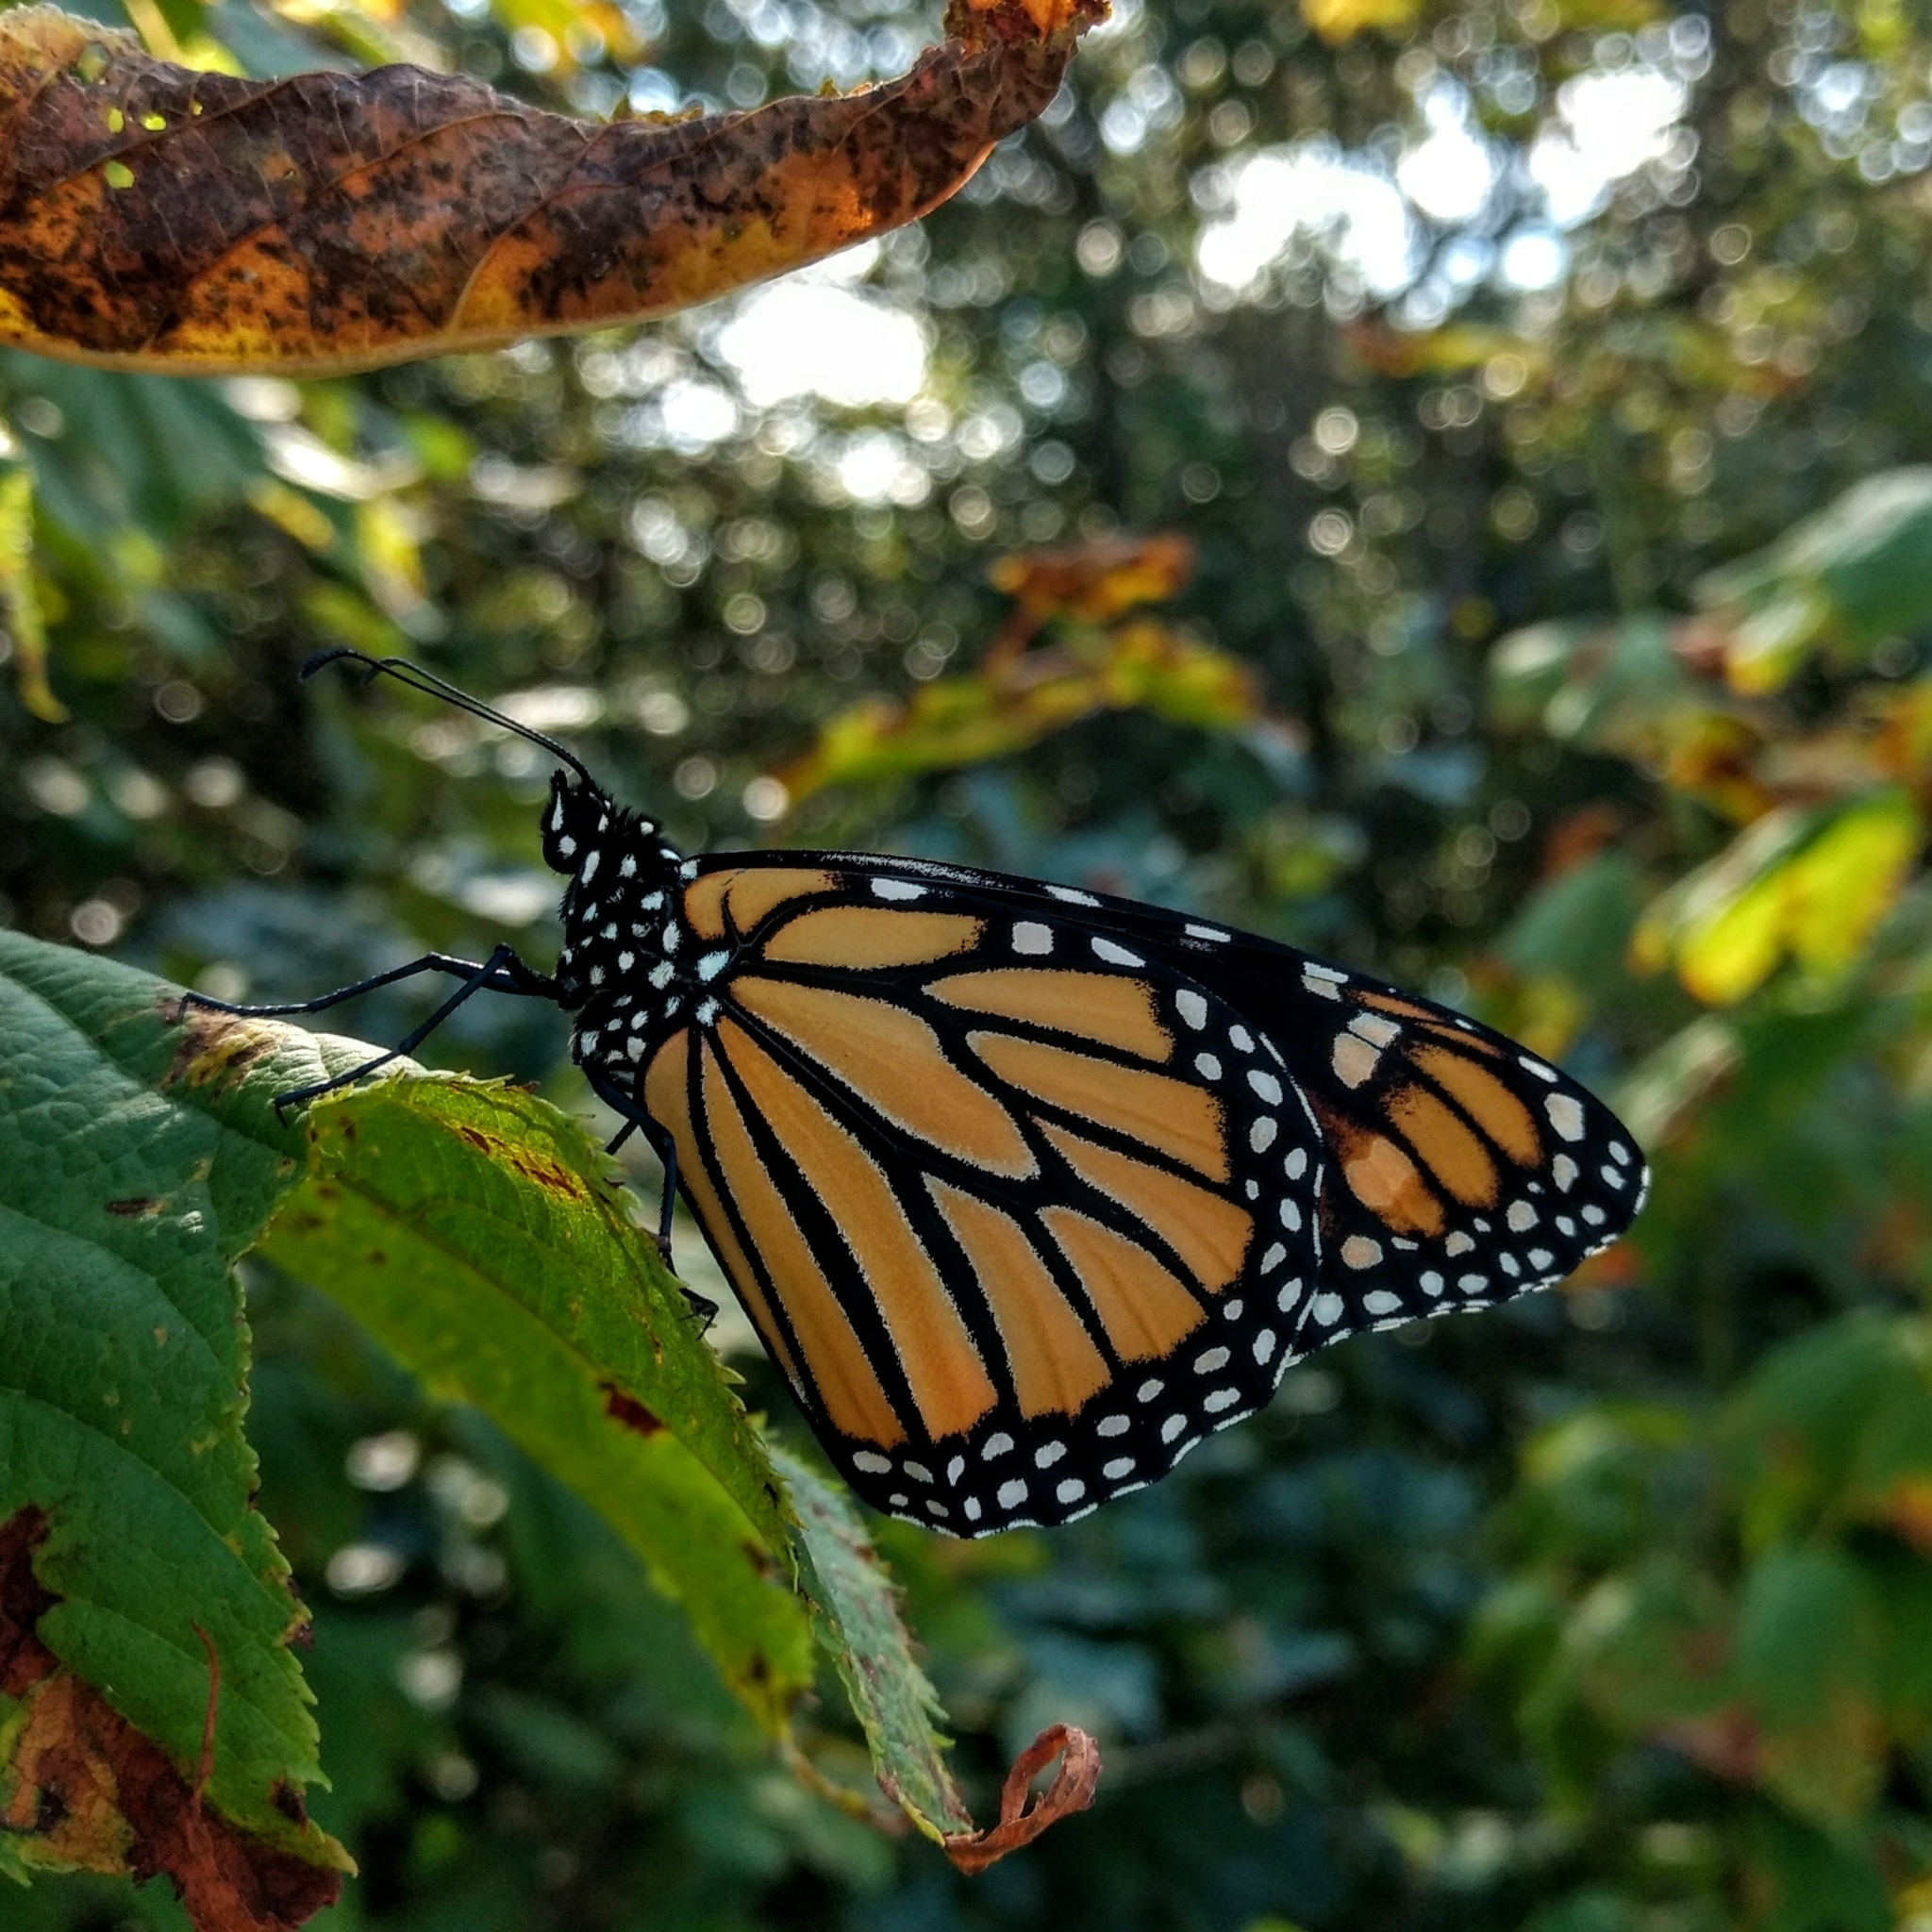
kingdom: Animalia
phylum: Arthropoda
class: Insecta
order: Lepidoptera
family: Nymphalidae
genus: Danaus
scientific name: Danaus plexippus
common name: Monarch
